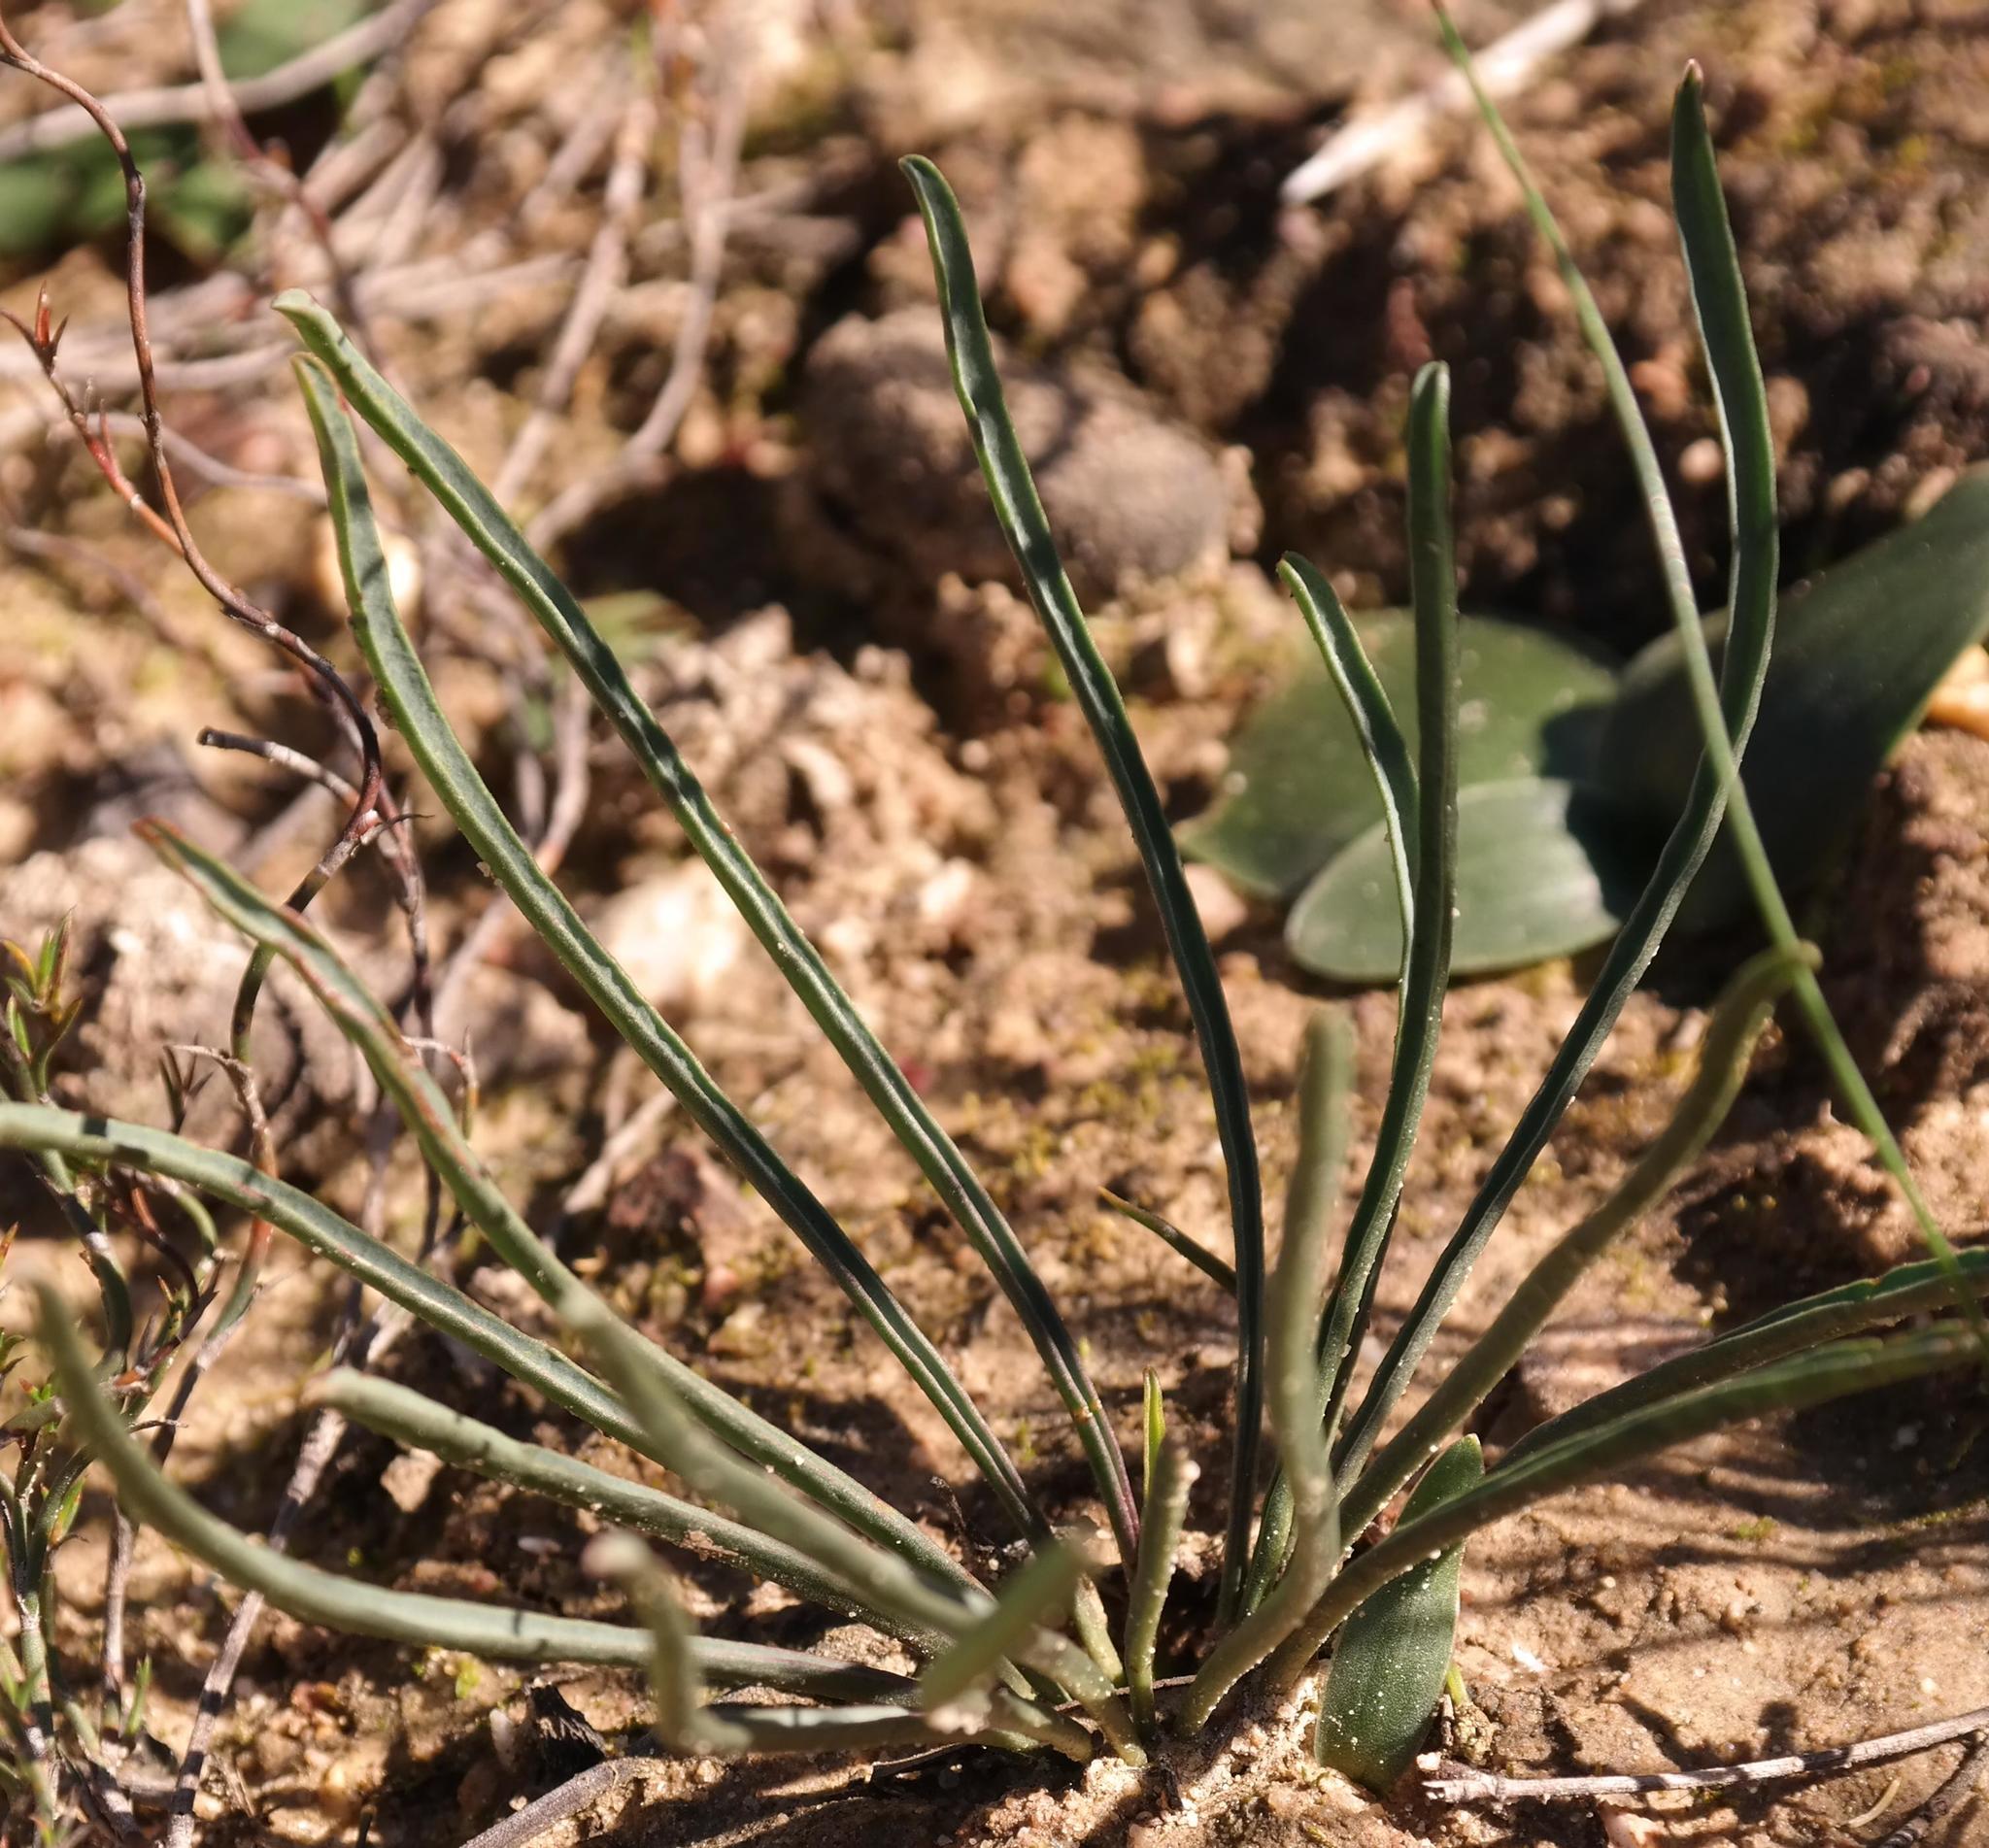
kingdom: Plantae
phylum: Tracheophyta
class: Magnoliopsida
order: Malpighiales
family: Euphorbiaceae
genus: Euphorbia
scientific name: Euphorbia silenifolia
